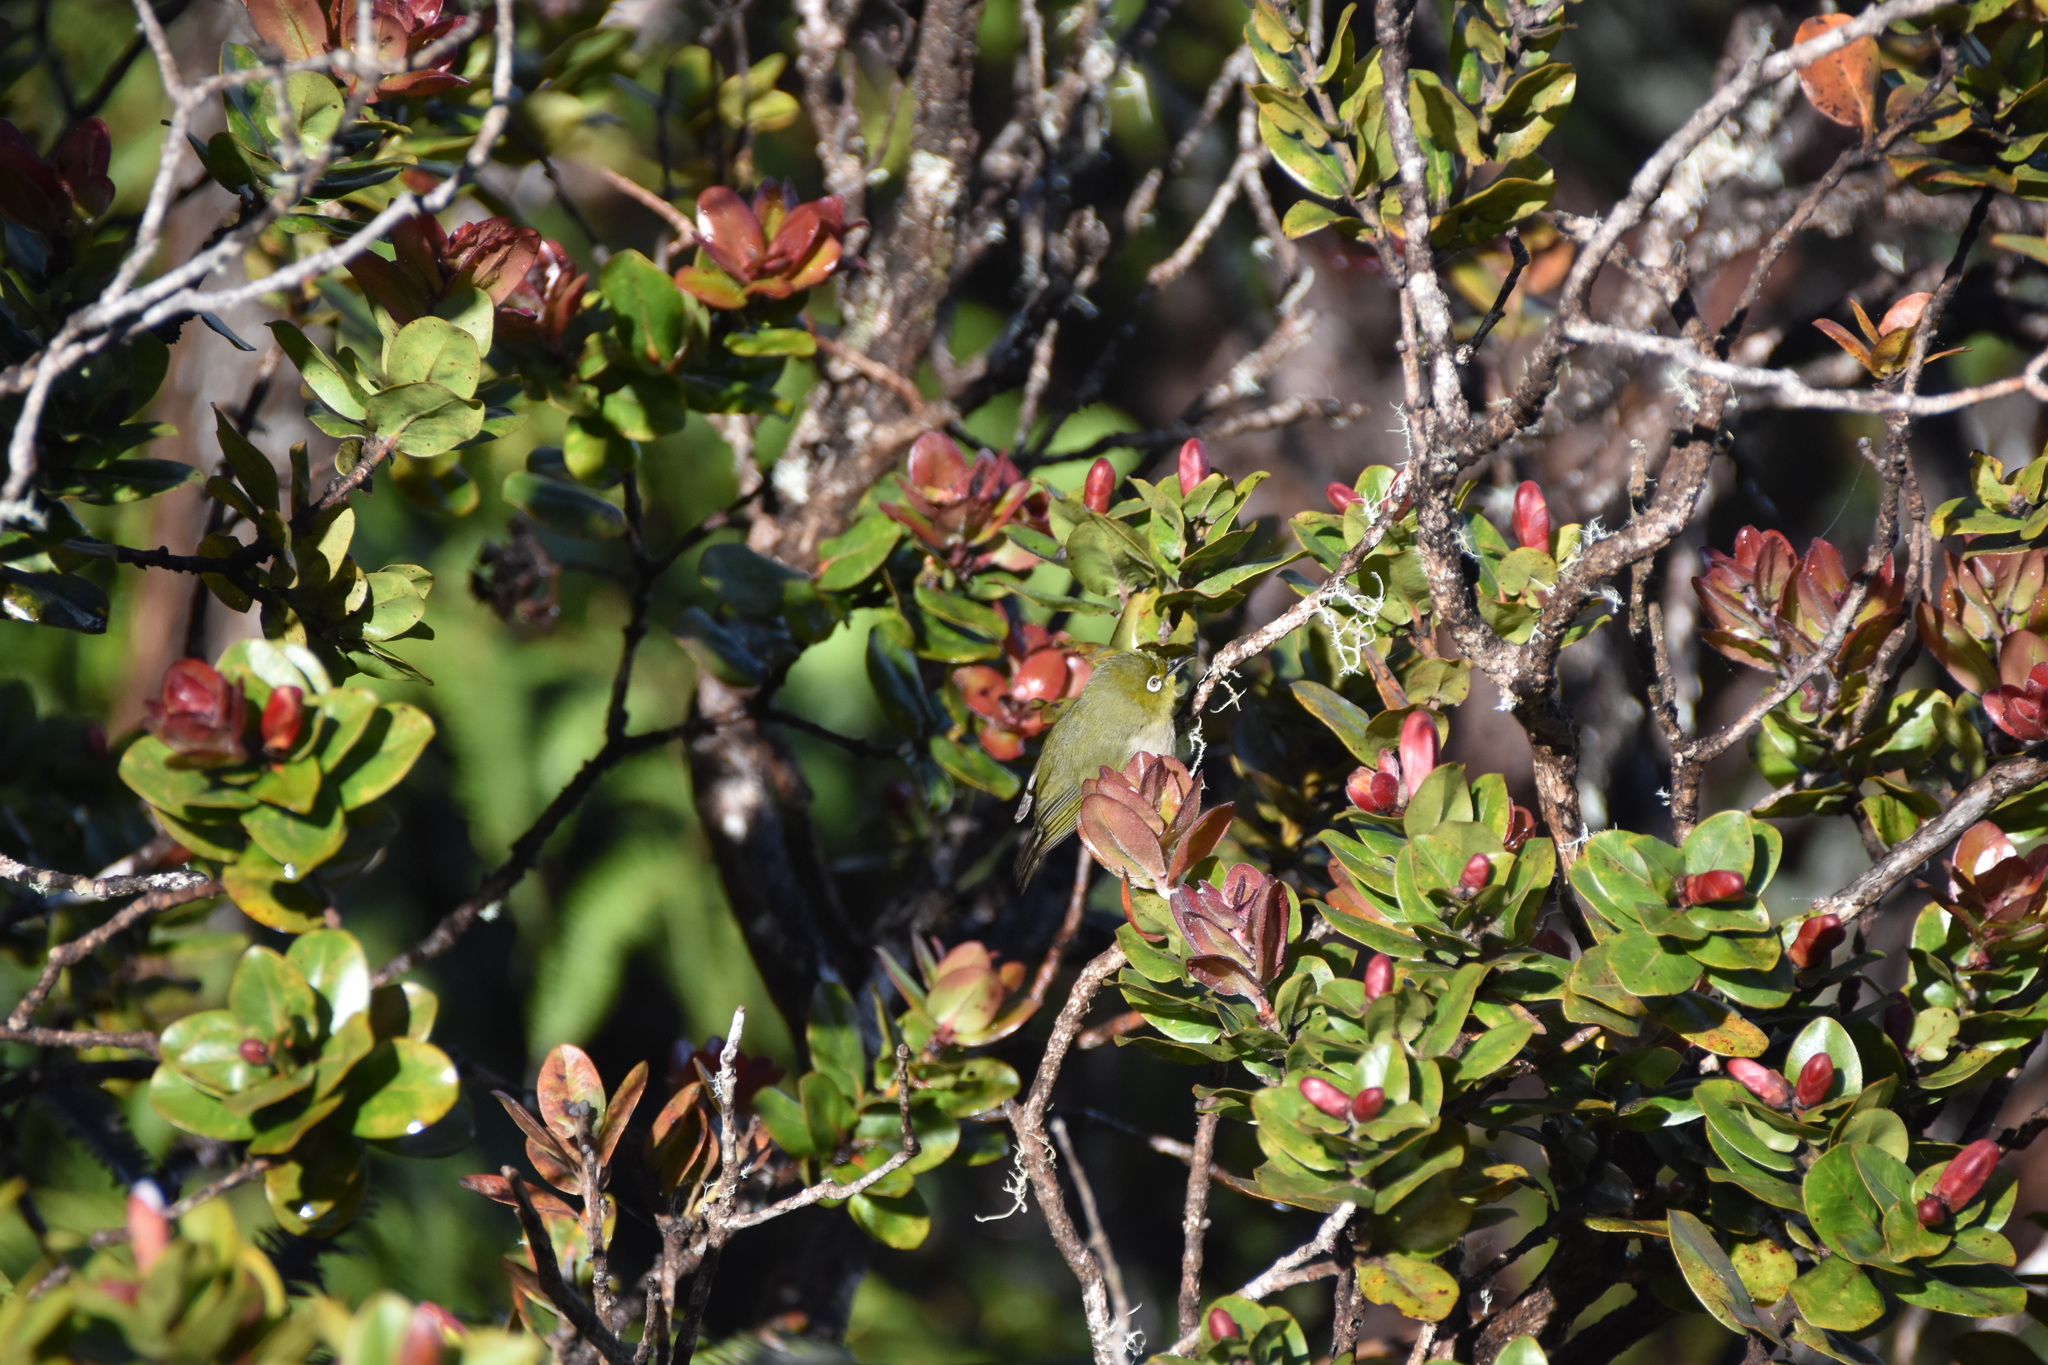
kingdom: Animalia
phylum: Chordata
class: Aves
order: Passeriformes
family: Zosteropidae
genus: Zosterops
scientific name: Zosterops japonicus
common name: Japanese white-eye
